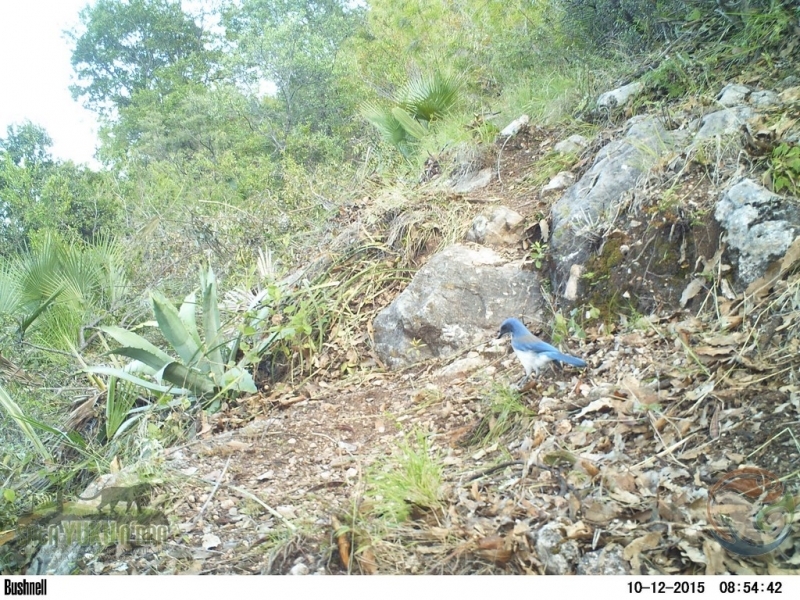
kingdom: Animalia
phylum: Chordata
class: Aves
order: Passeriformes
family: Corvidae
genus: Aphelocoma
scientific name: Aphelocoma woodhouseii
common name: Woodhouse's scrub-jay
